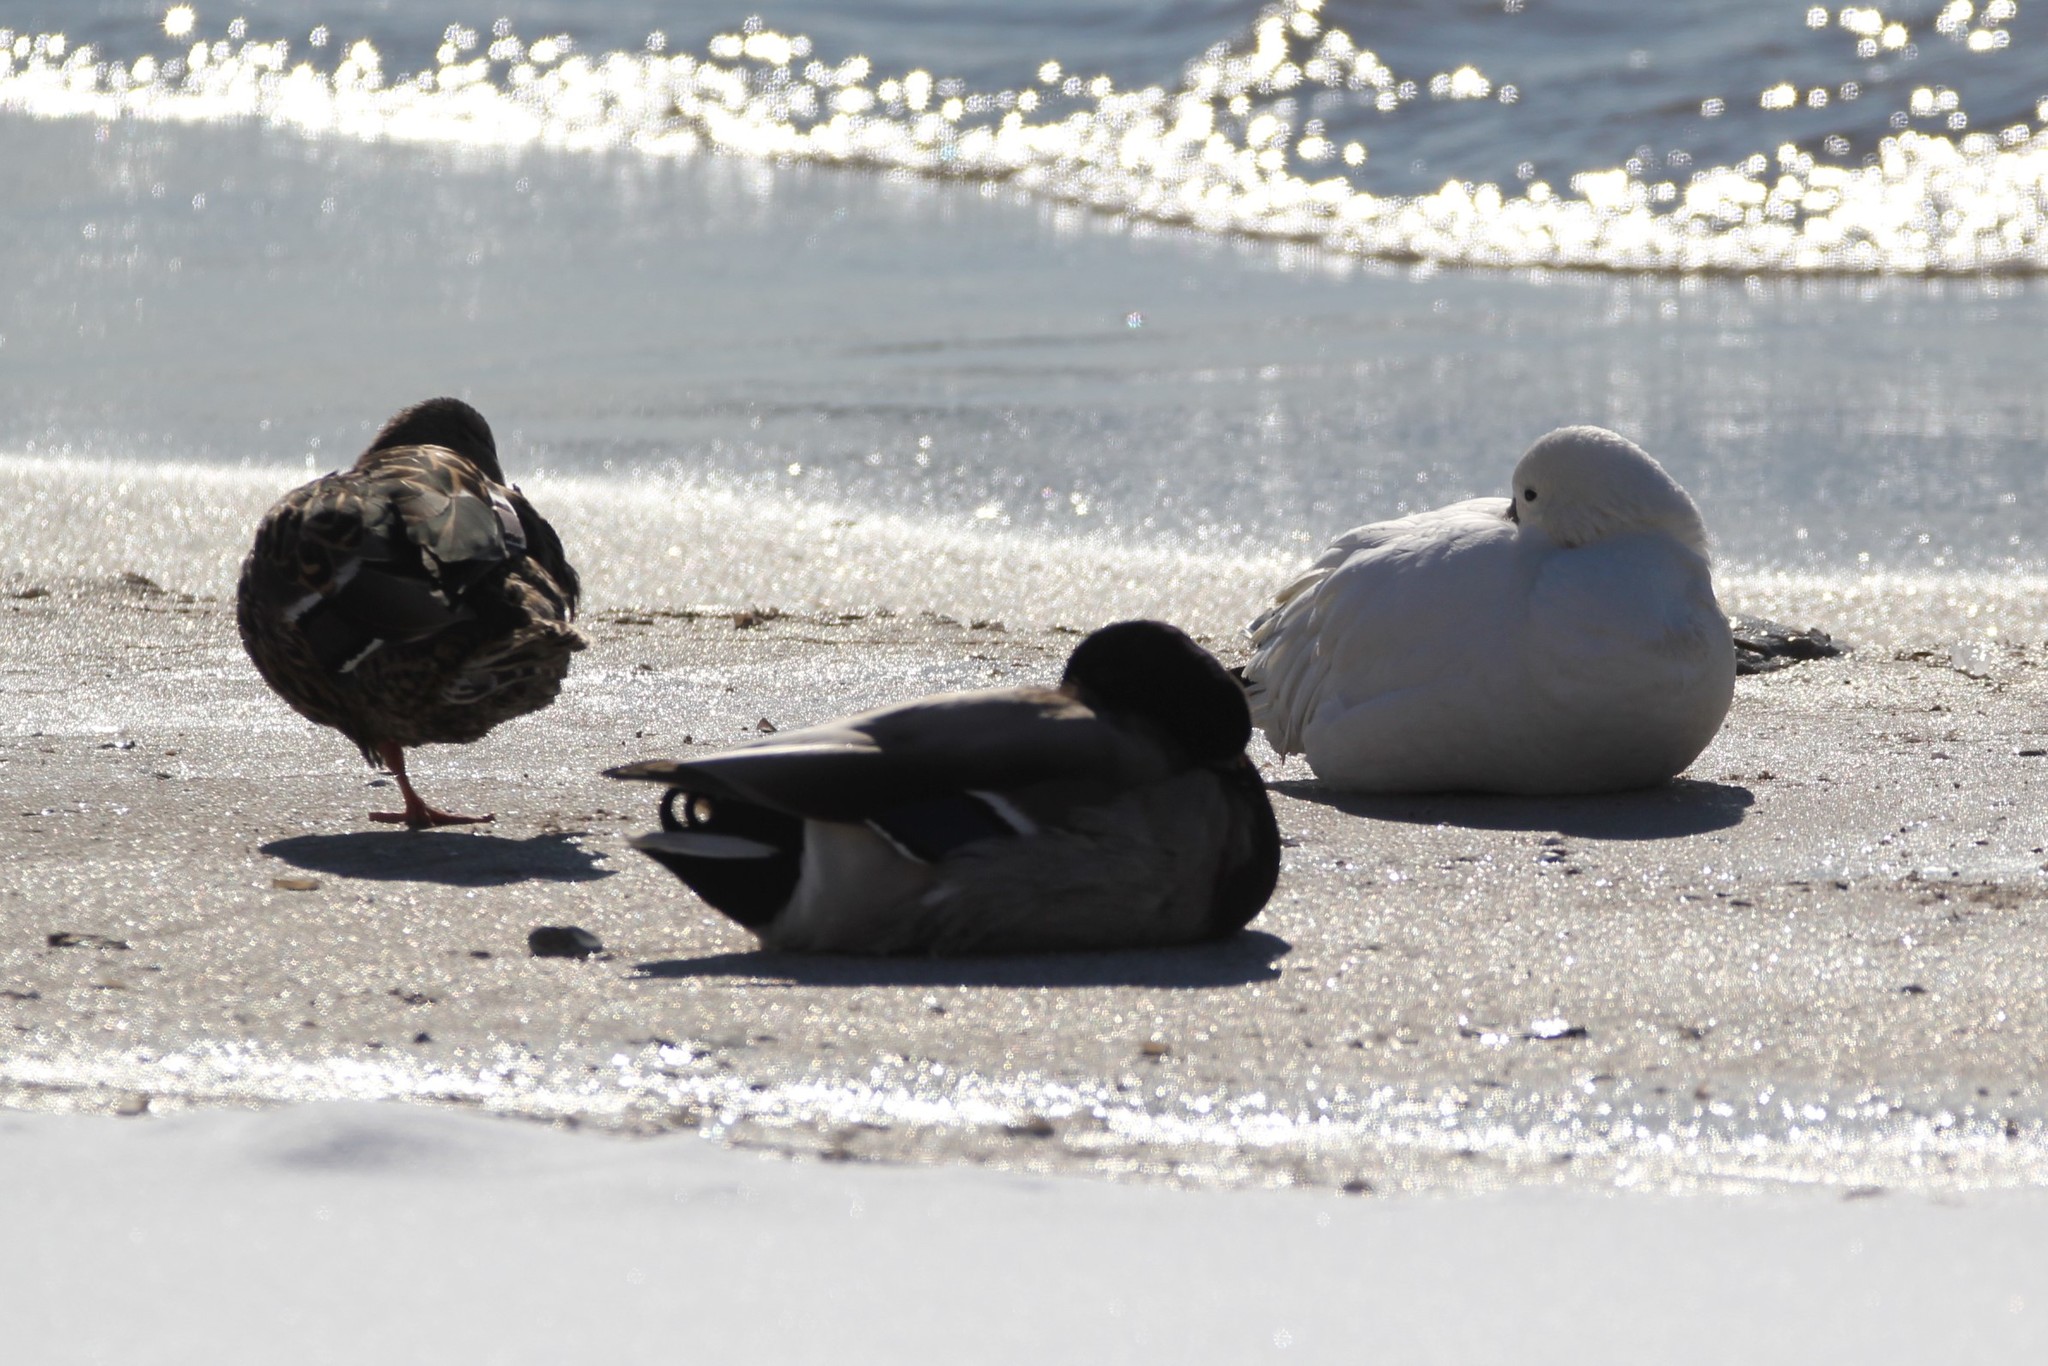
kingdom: Animalia
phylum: Chordata
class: Aves
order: Anseriformes
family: Anatidae
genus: Anas
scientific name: Anas platyrhynchos
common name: Mallard
